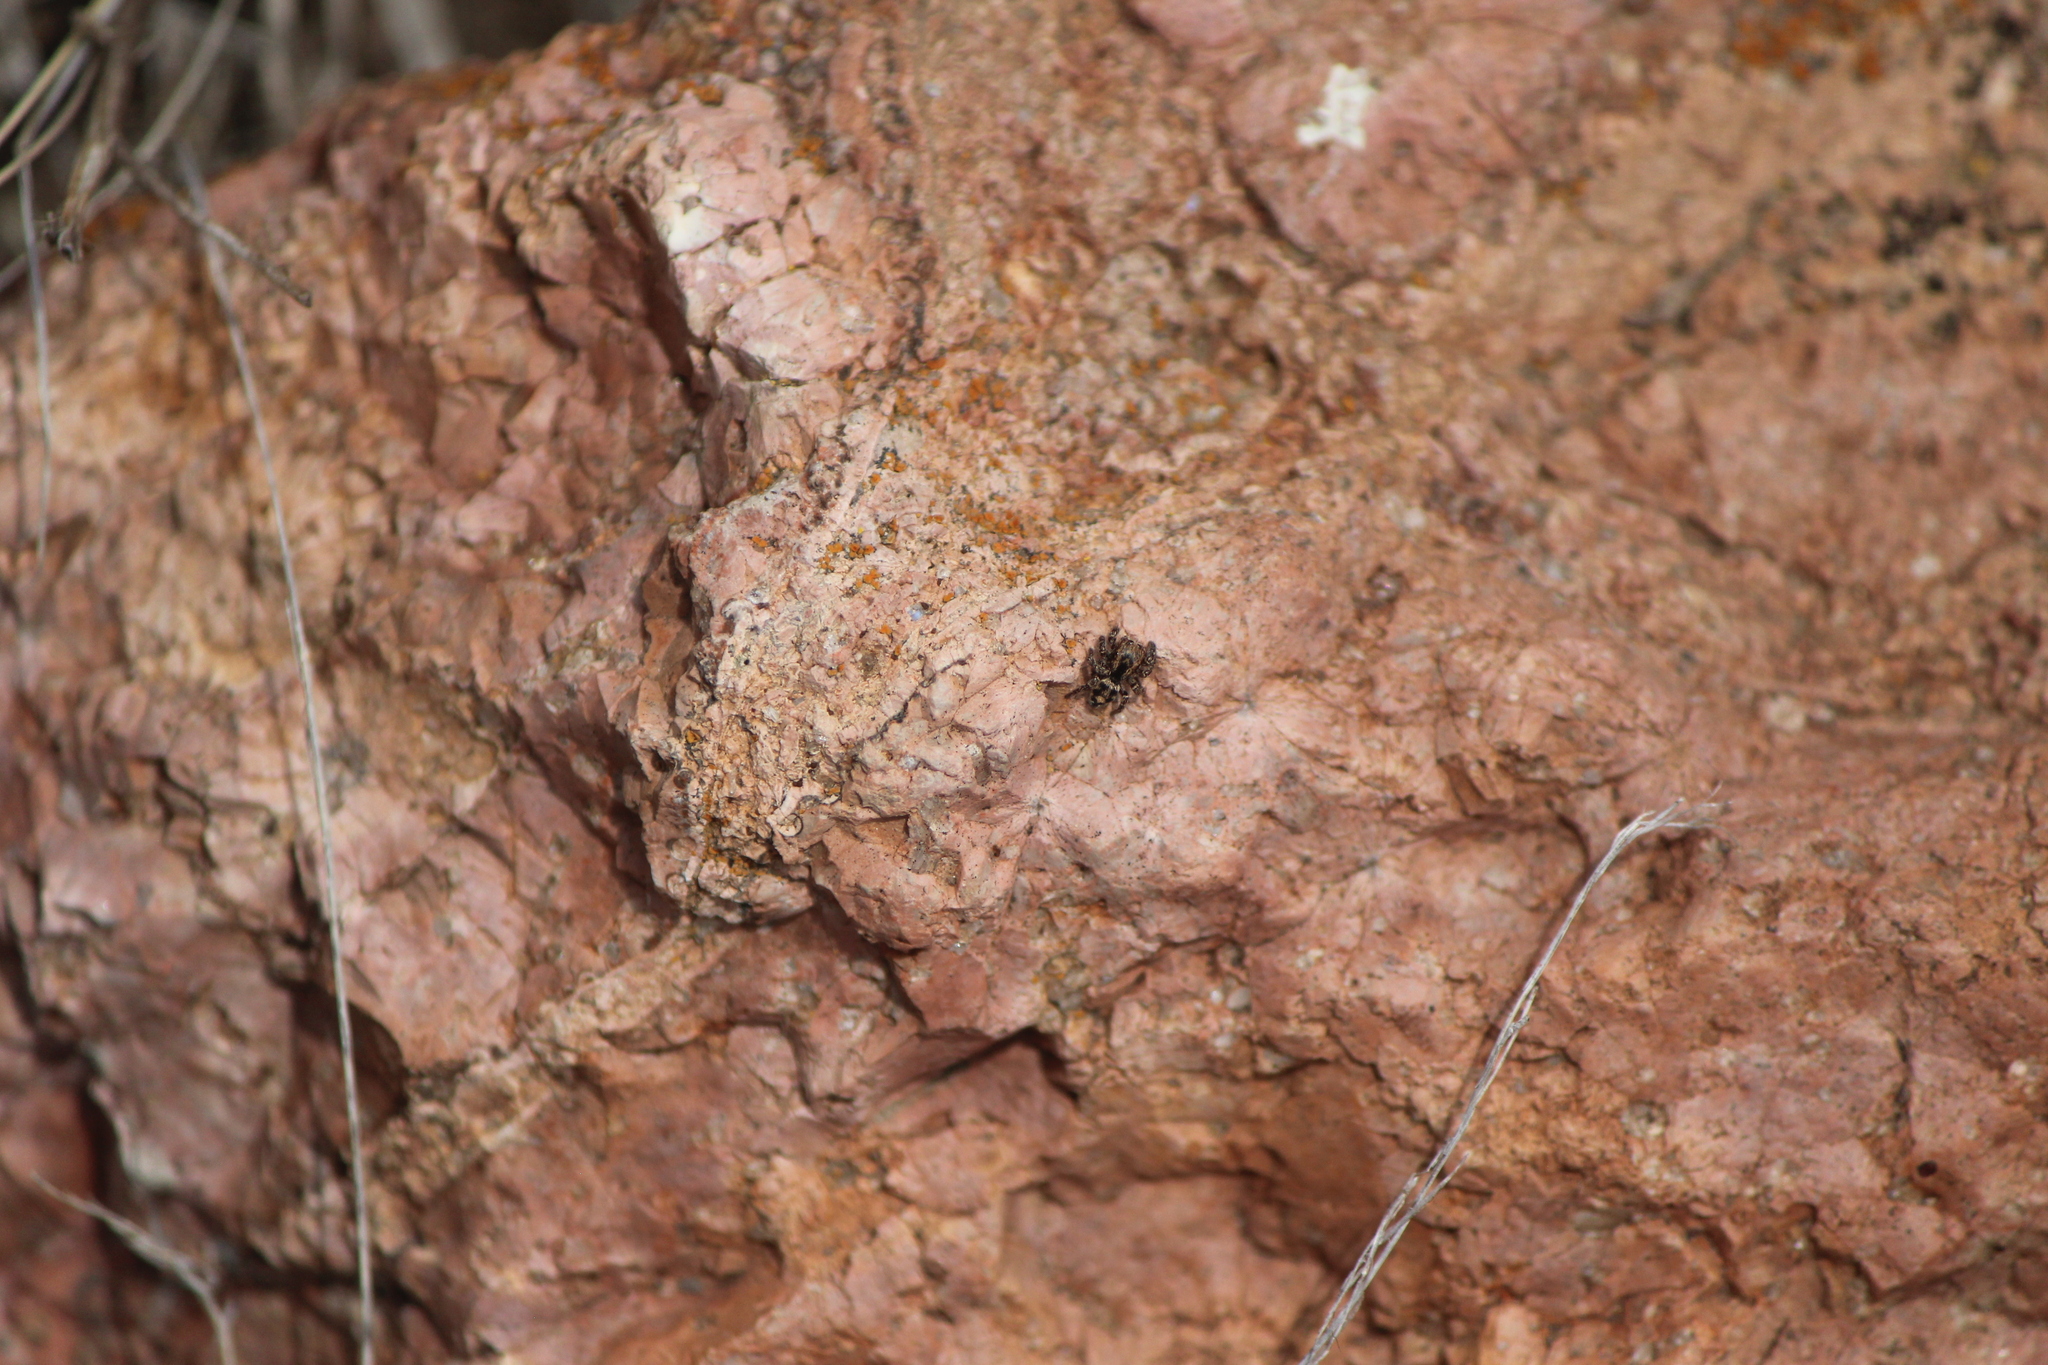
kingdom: Animalia
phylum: Arthropoda
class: Arachnida
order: Araneae
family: Salticidae
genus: Habronattus
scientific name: Habronattus fallax
